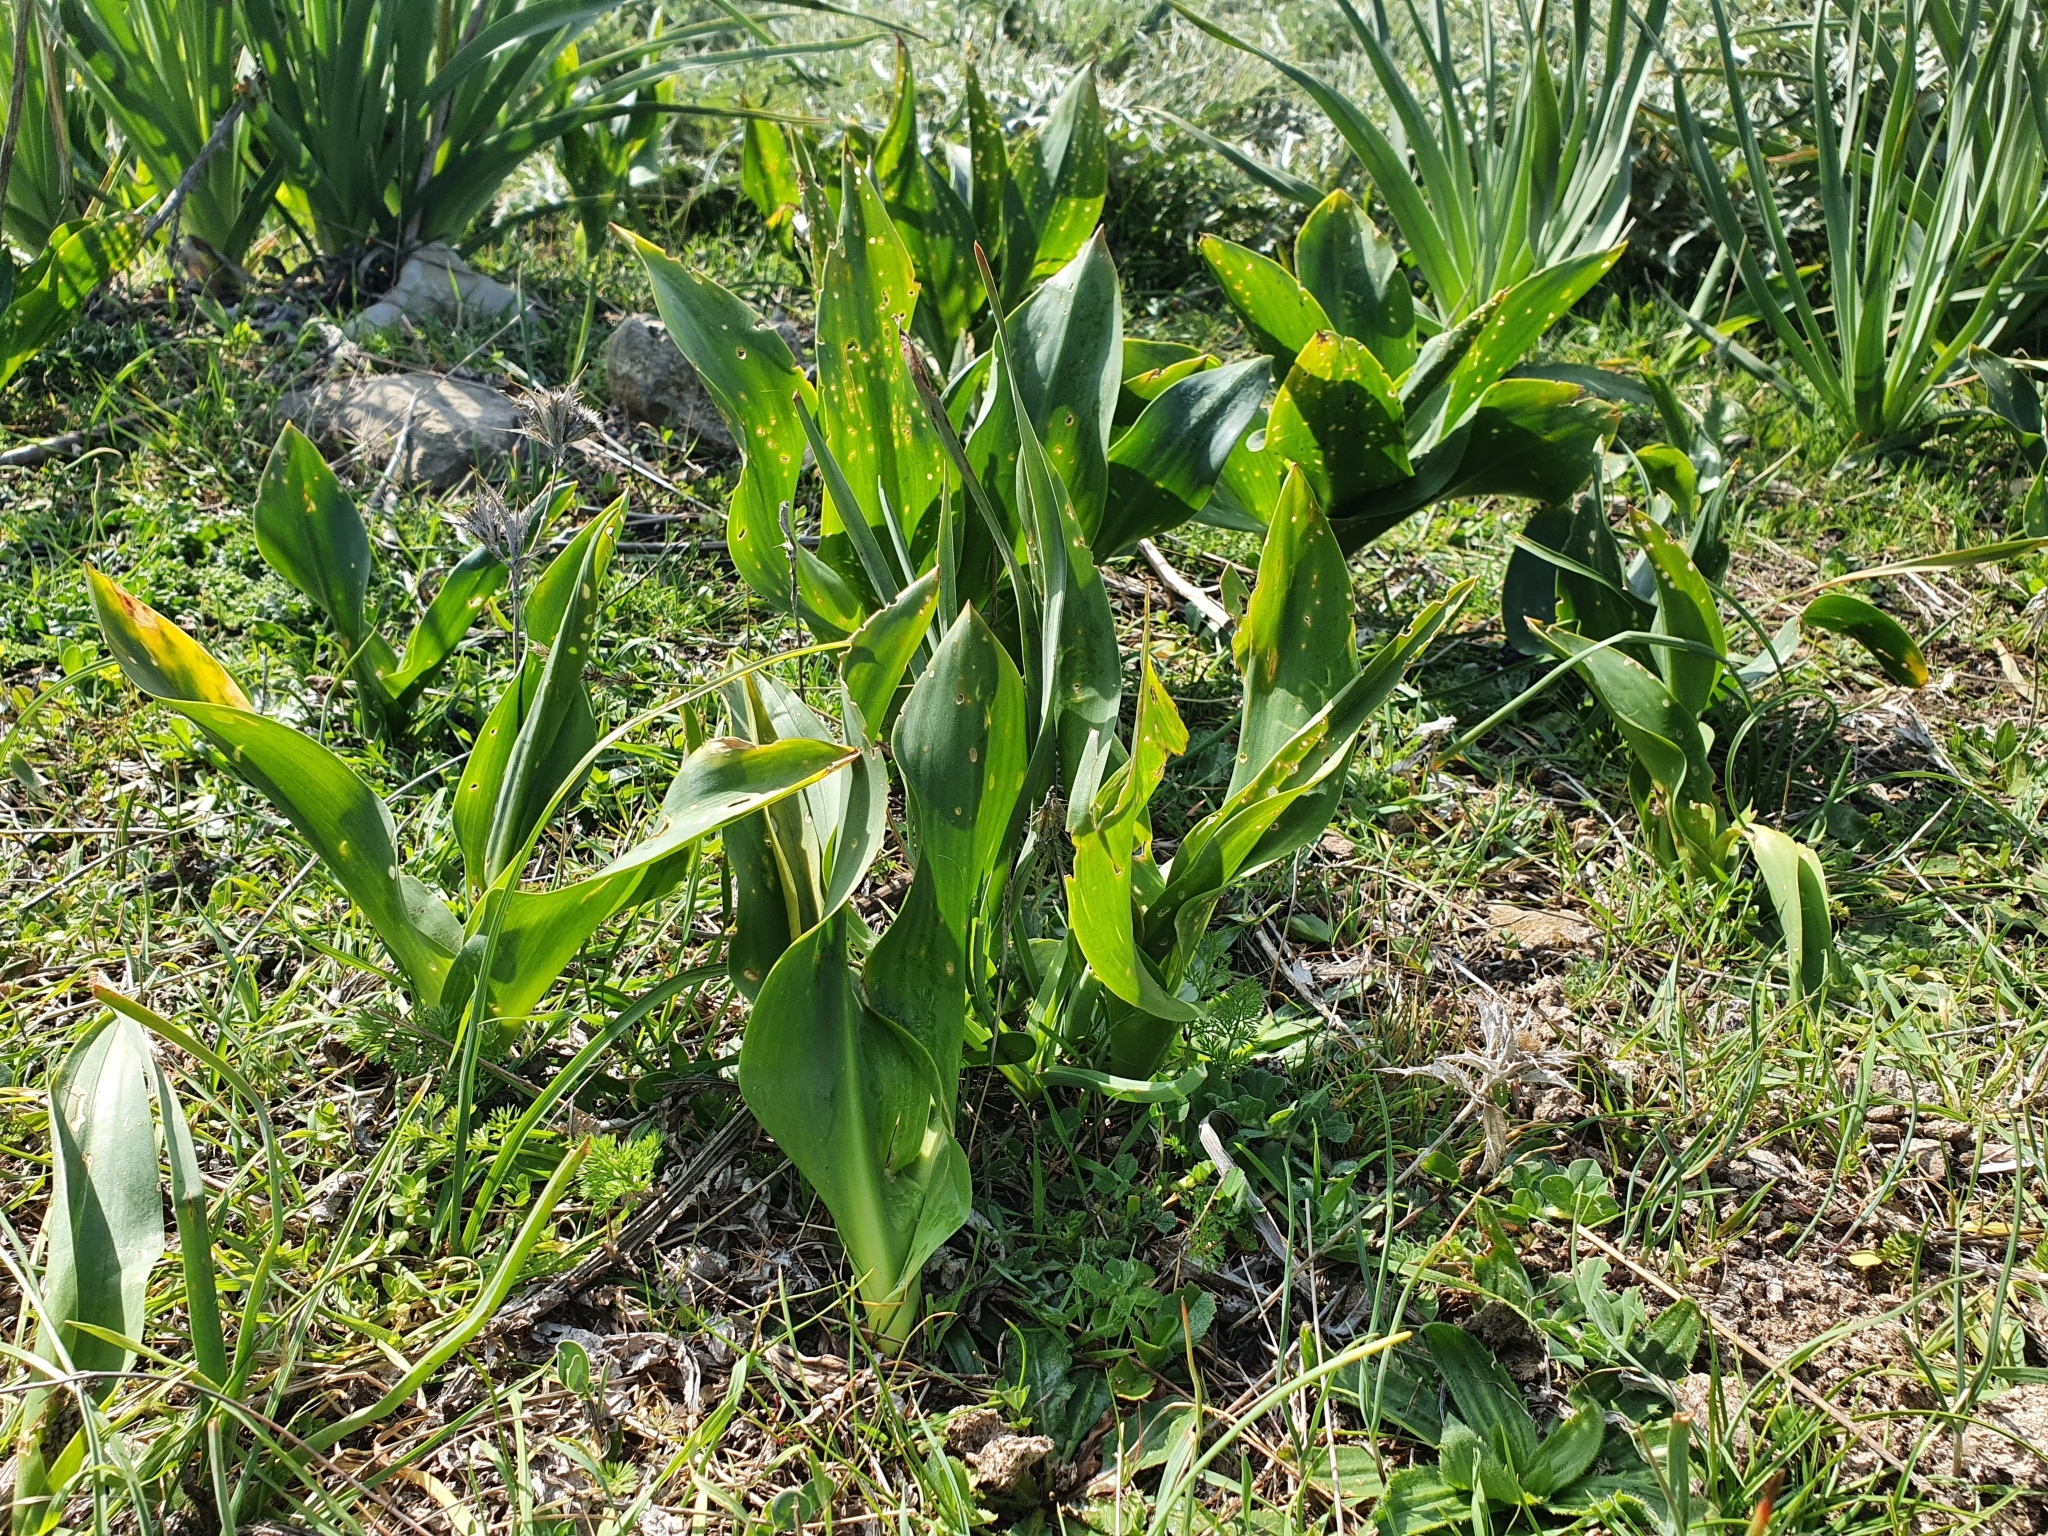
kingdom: Plantae
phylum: Tracheophyta
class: Liliopsida
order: Asparagales
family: Asparagaceae
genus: Drimia
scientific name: Drimia numidica
